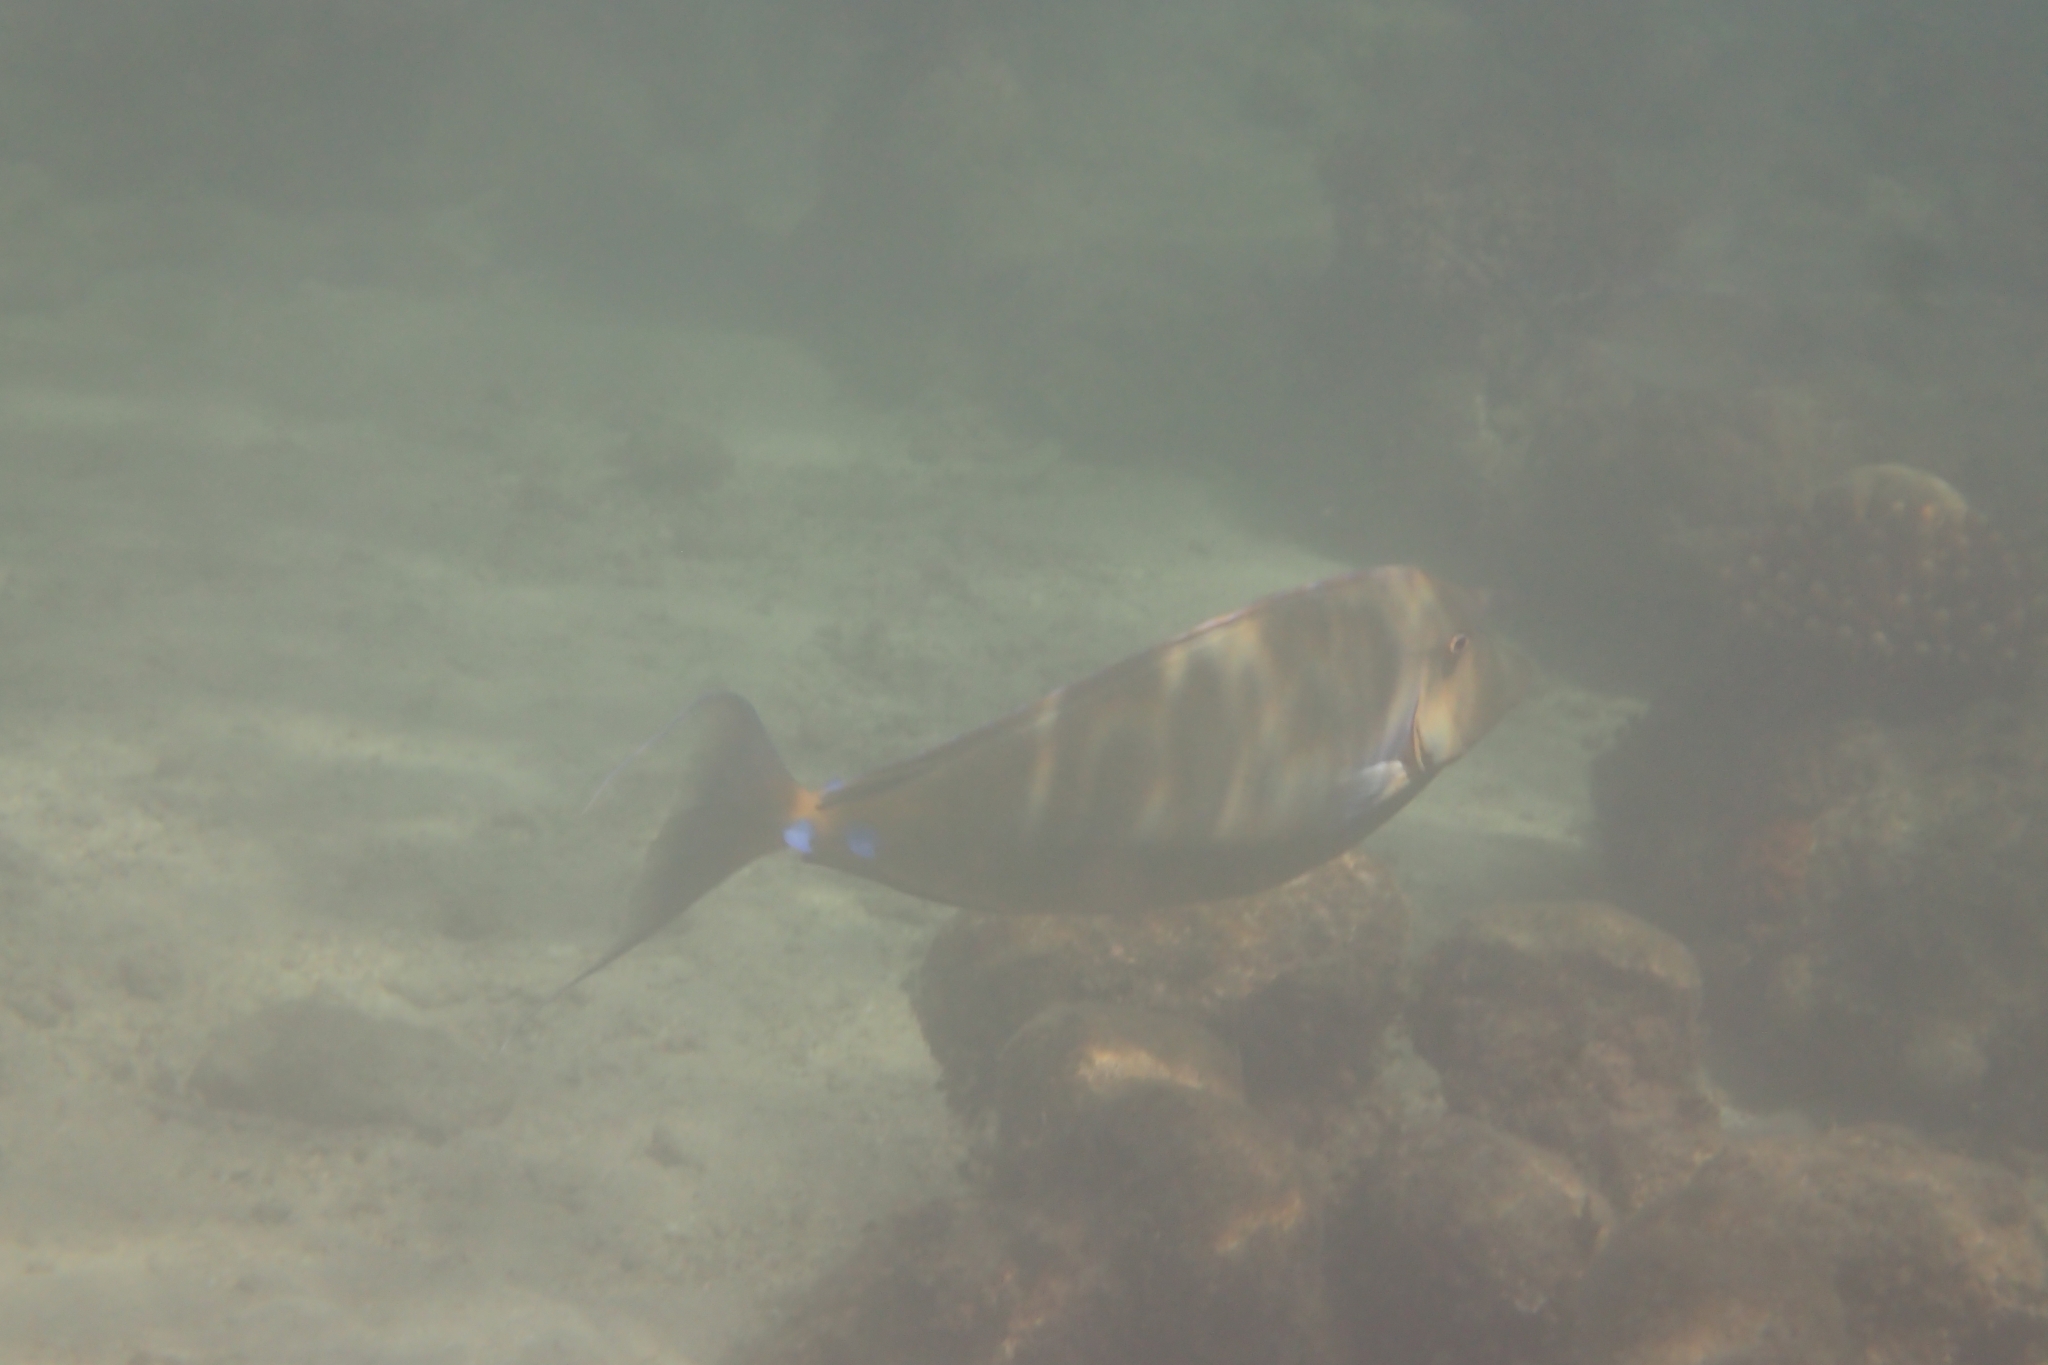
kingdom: Animalia
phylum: Chordata
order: Perciformes
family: Acanthuridae
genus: Naso
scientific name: Naso unicornis
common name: Bluespine unicornfish
